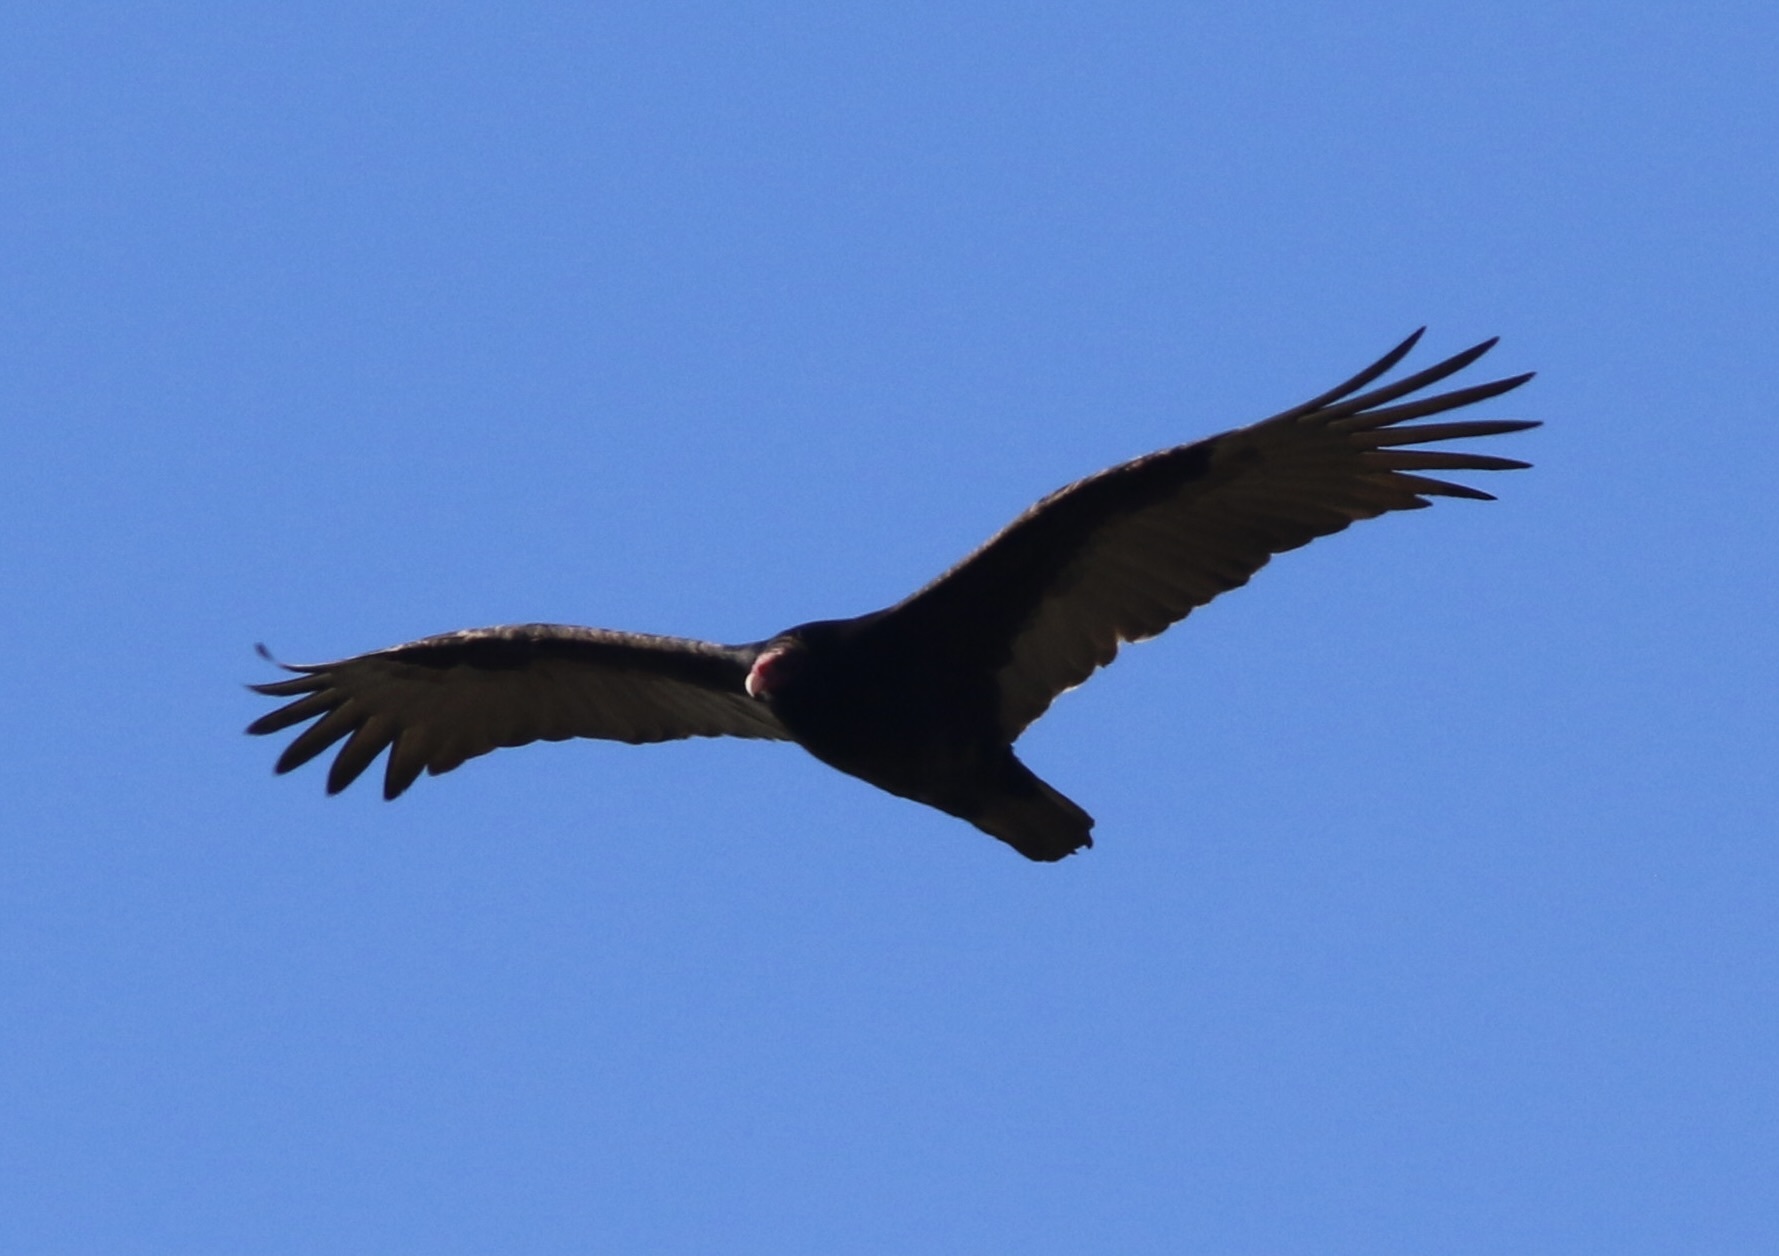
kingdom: Animalia
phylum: Chordata
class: Aves
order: Accipitriformes
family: Cathartidae
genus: Cathartes
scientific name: Cathartes aura
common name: Turkey vulture
